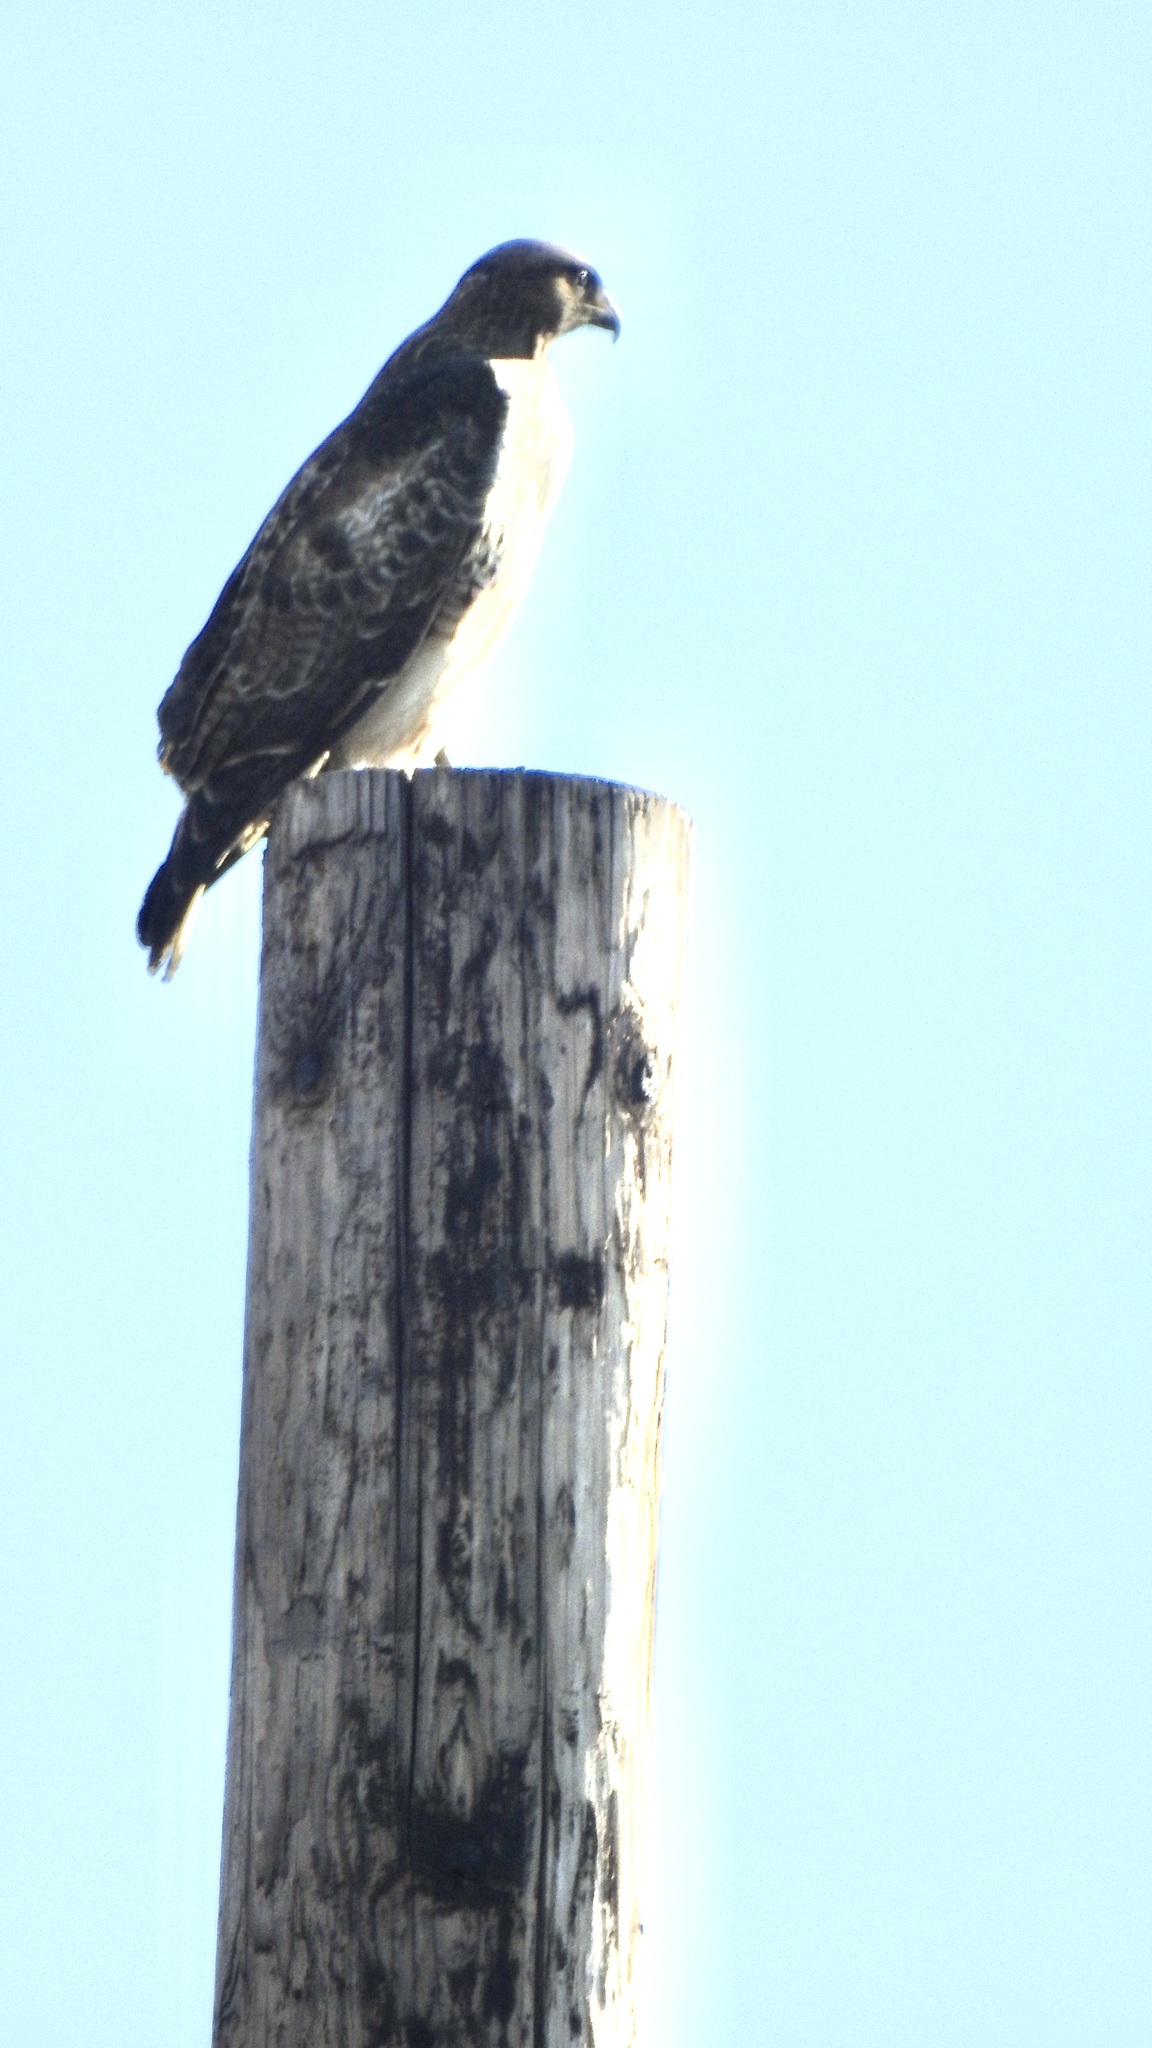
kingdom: Animalia
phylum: Chordata
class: Aves
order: Accipitriformes
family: Accipitridae
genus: Buteo
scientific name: Buteo jamaicensis
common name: Red-tailed hawk
